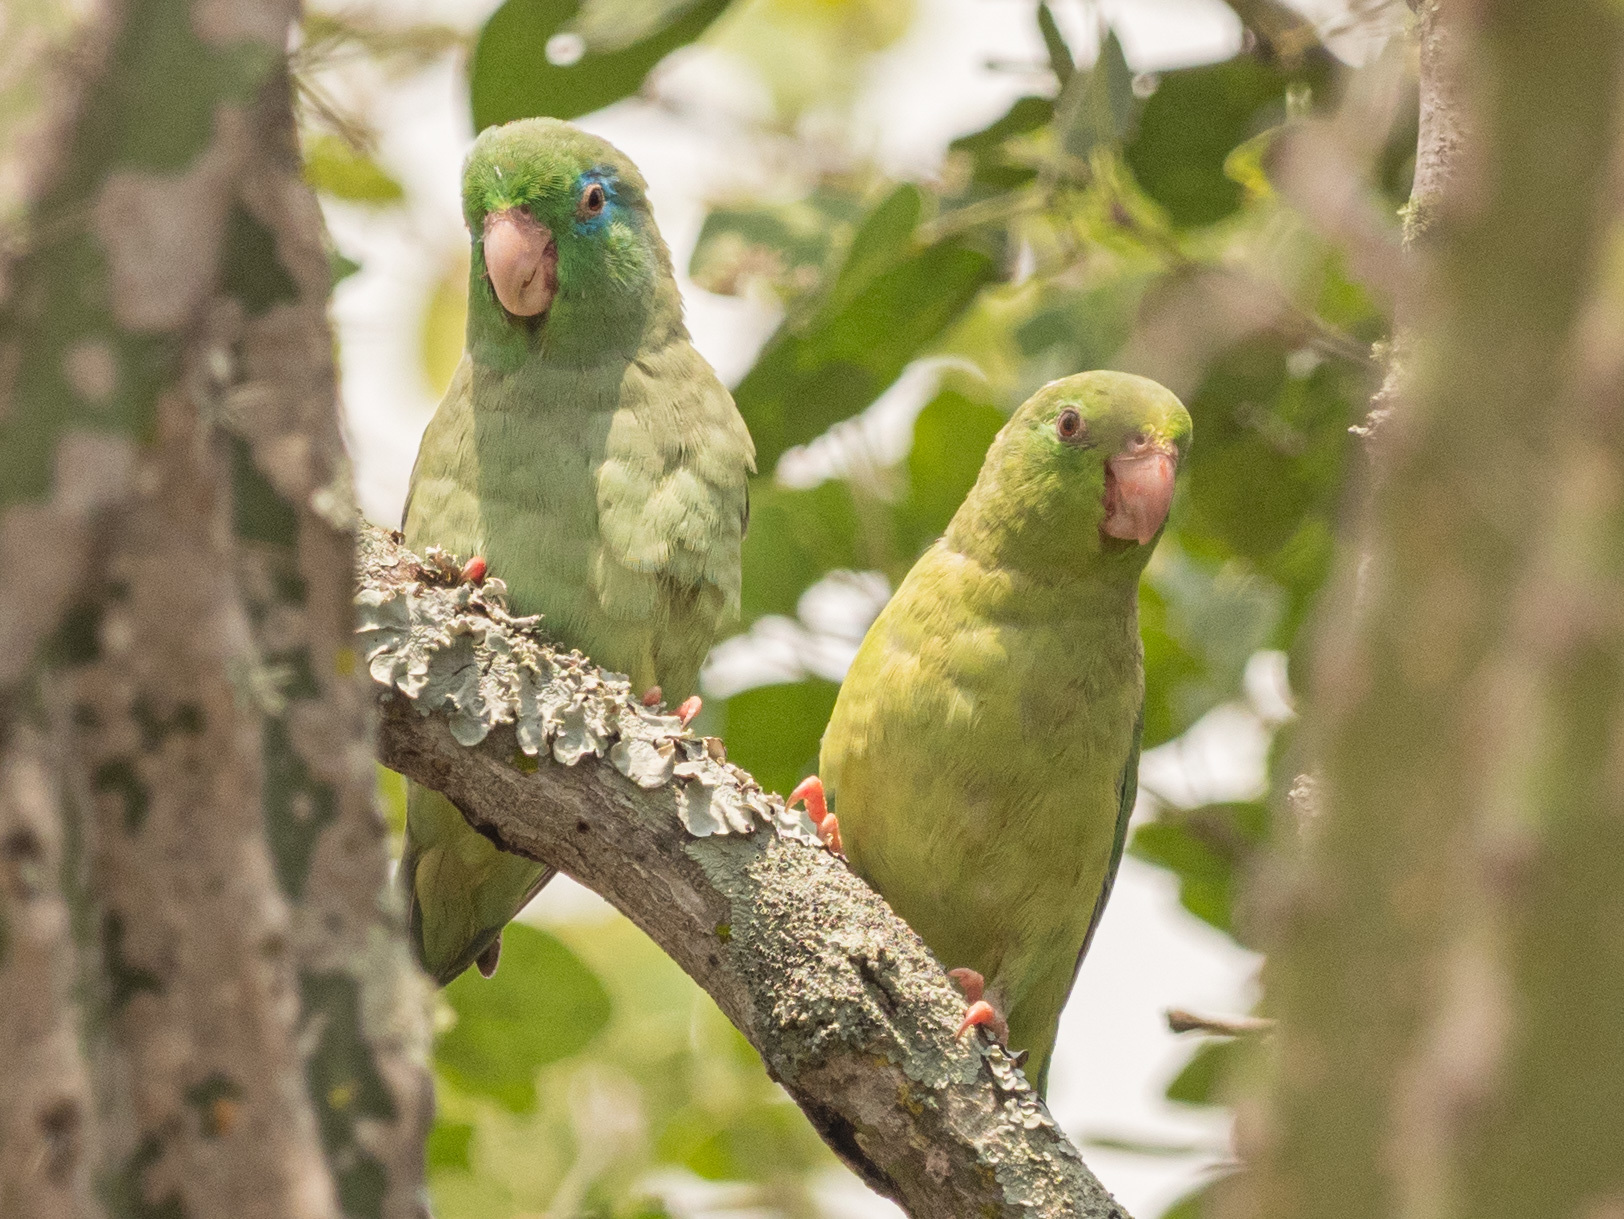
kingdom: Animalia
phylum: Chordata
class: Aves
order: Psittaciformes
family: Psittacidae
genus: Forpus
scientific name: Forpus conspicillatus
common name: Spectacled parrotlet
